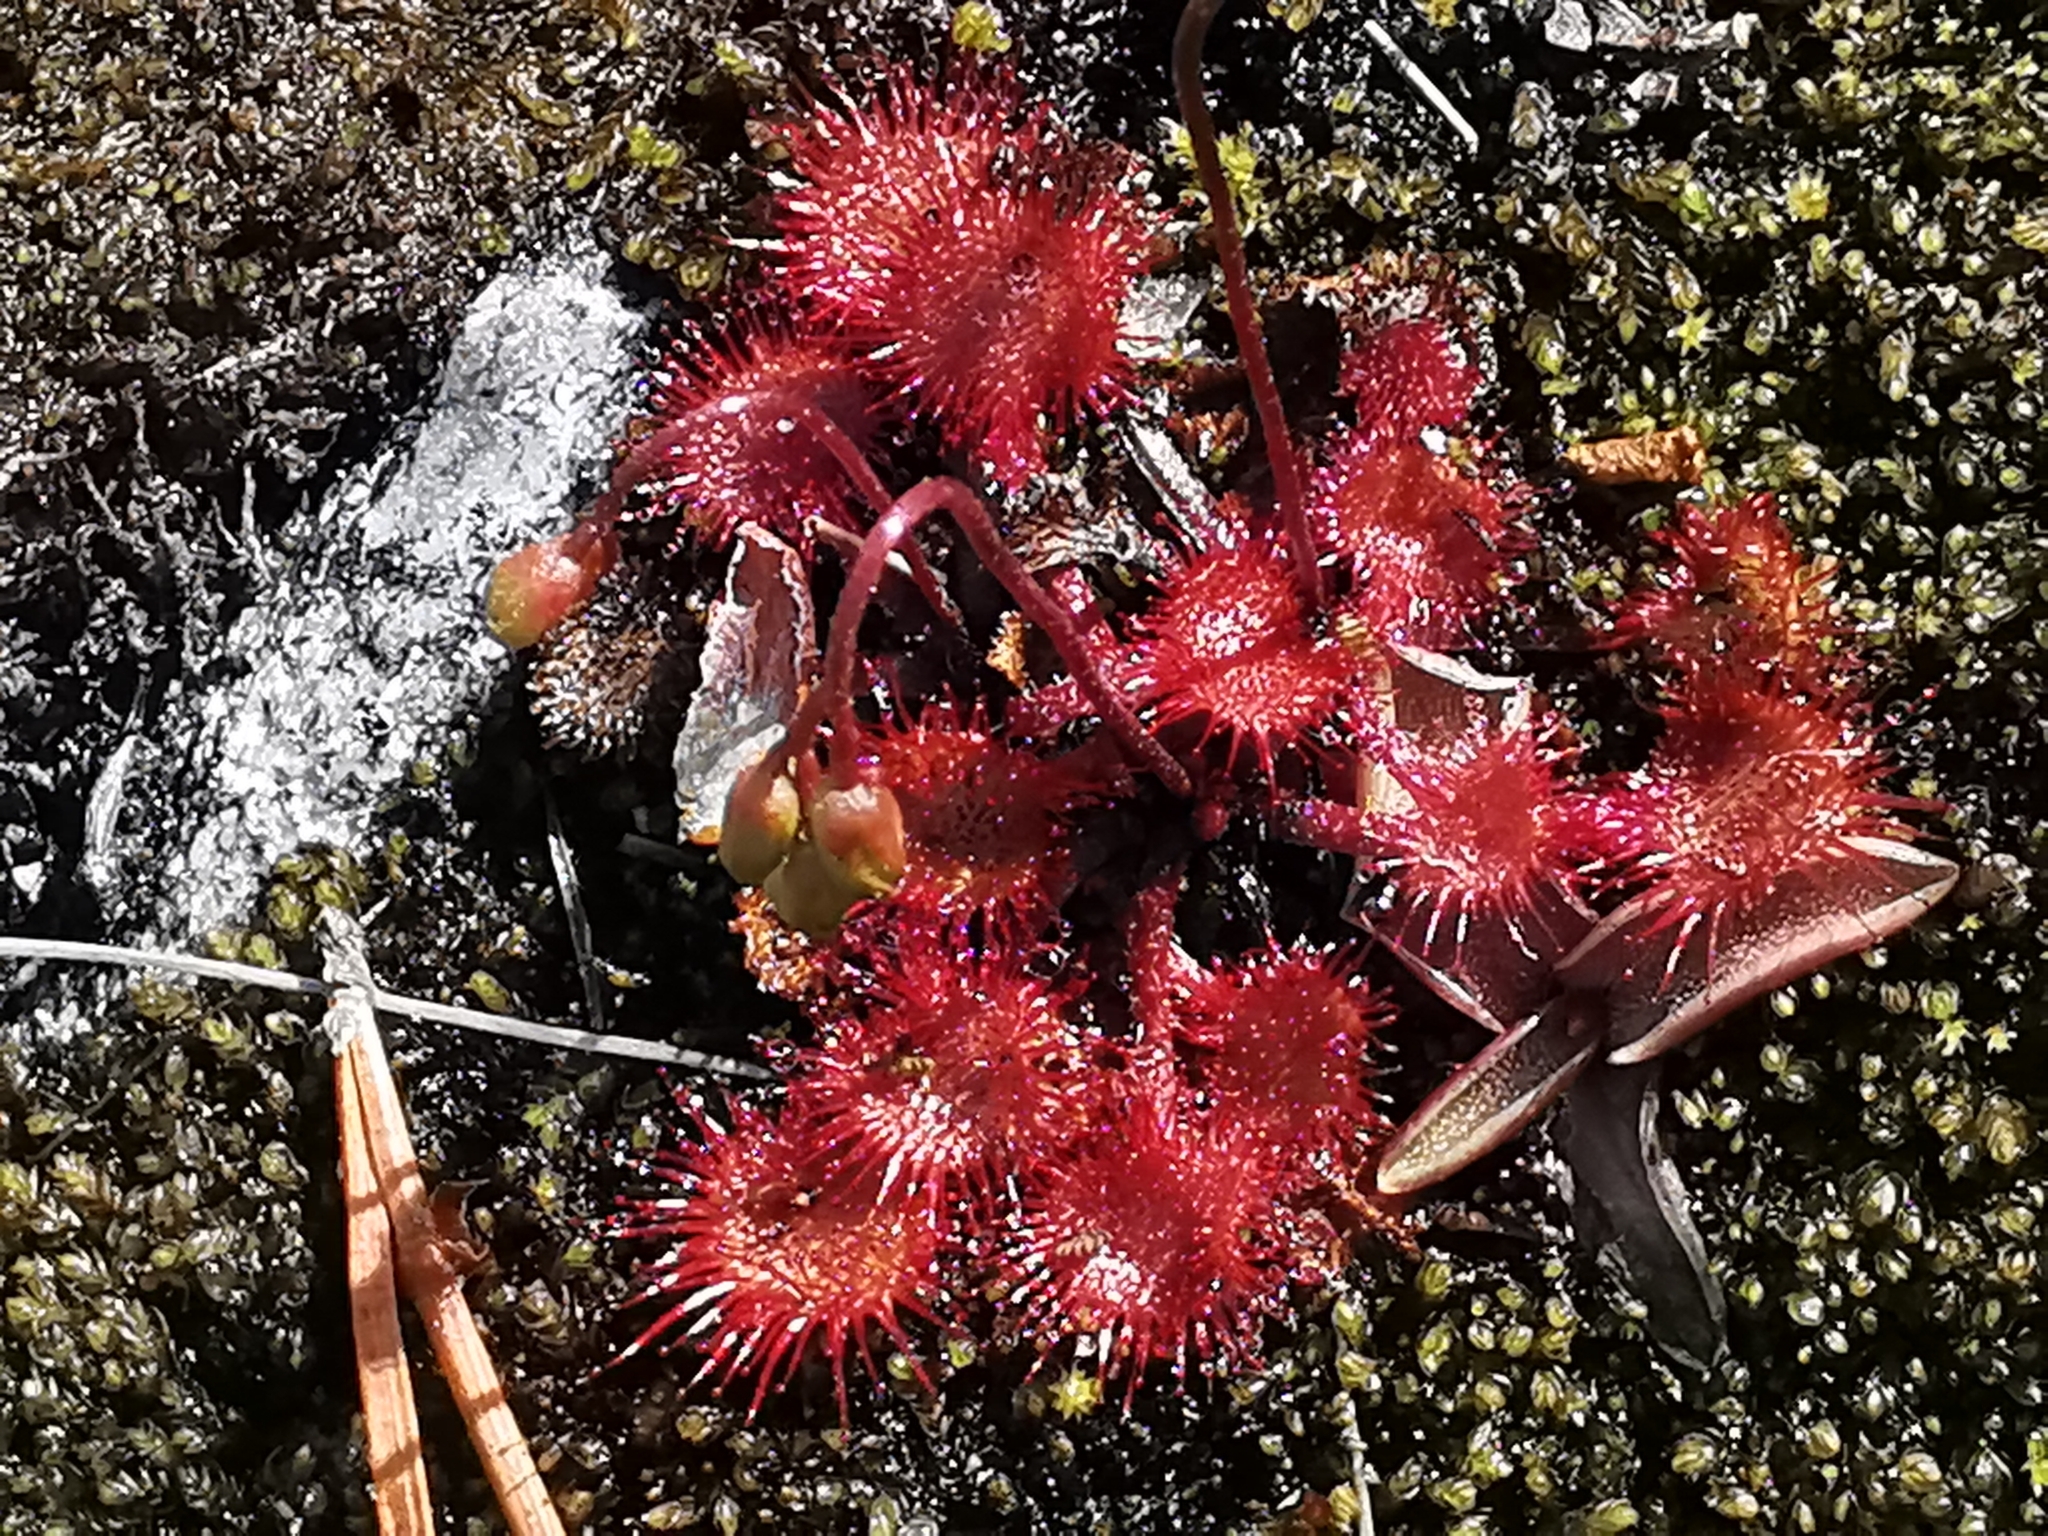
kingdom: Plantae
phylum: Tracheophyta
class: Magnoliopsida
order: Caryophyllales
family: Droseraceae
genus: Drosera
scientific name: Drosera rotundifolia
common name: Round-leaved sundew
